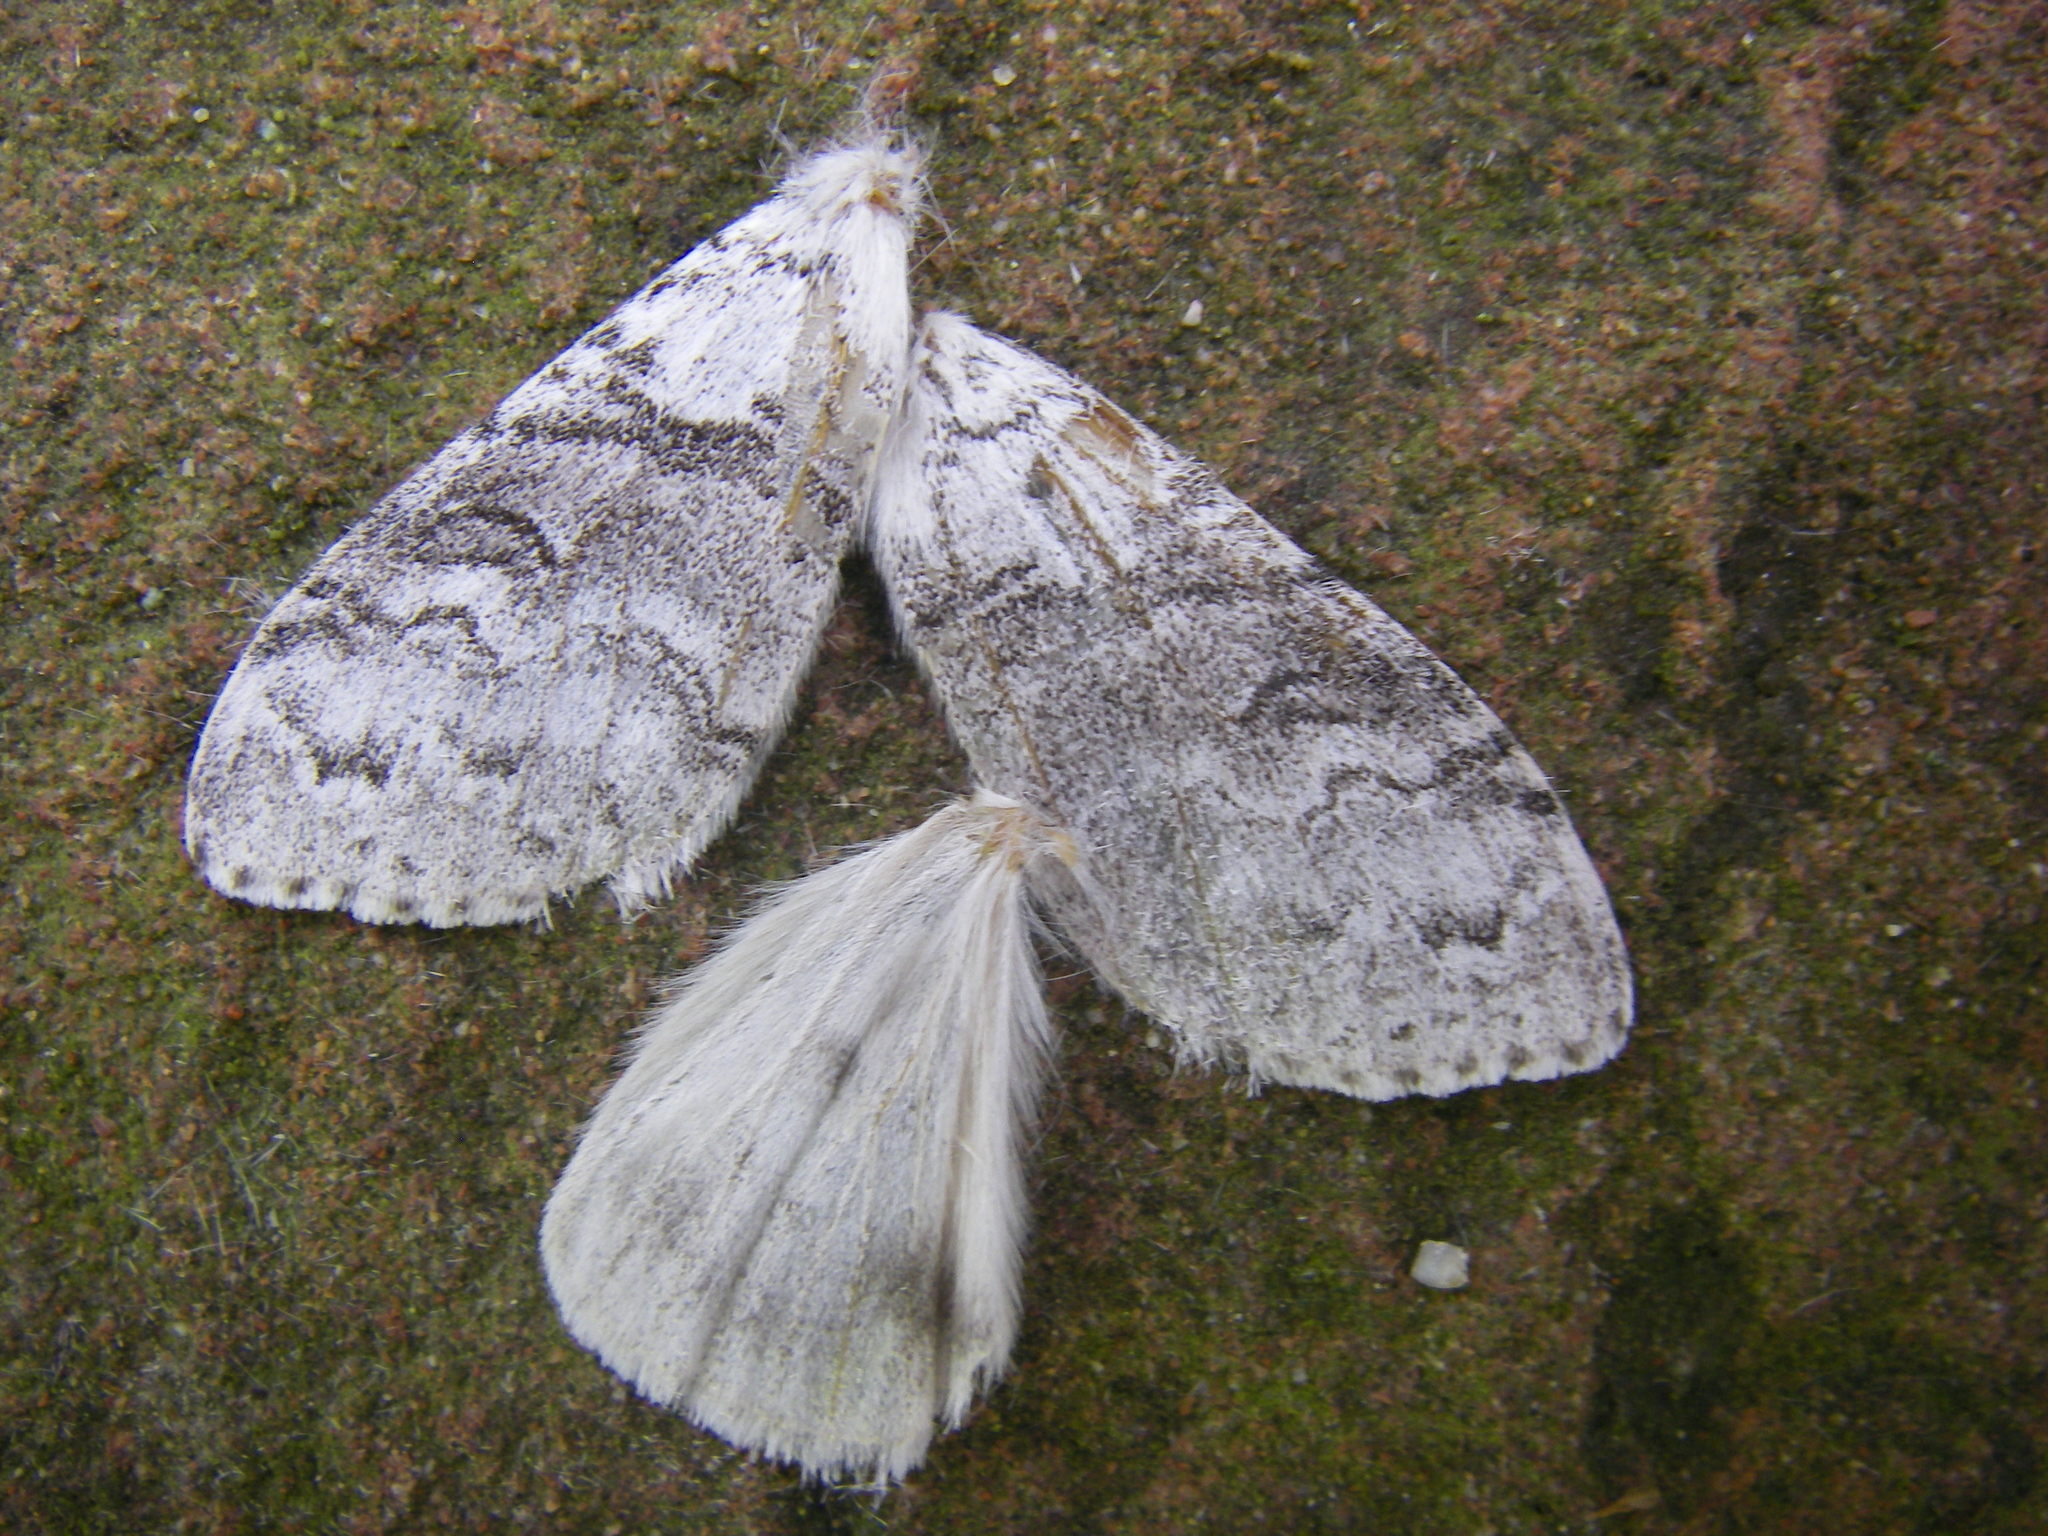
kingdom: Animalia
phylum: Arthropoda
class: Insecta
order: Lepidoptera
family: Erebidae
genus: Calliteara
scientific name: Calliteara pudibunda
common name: Pale tussock
